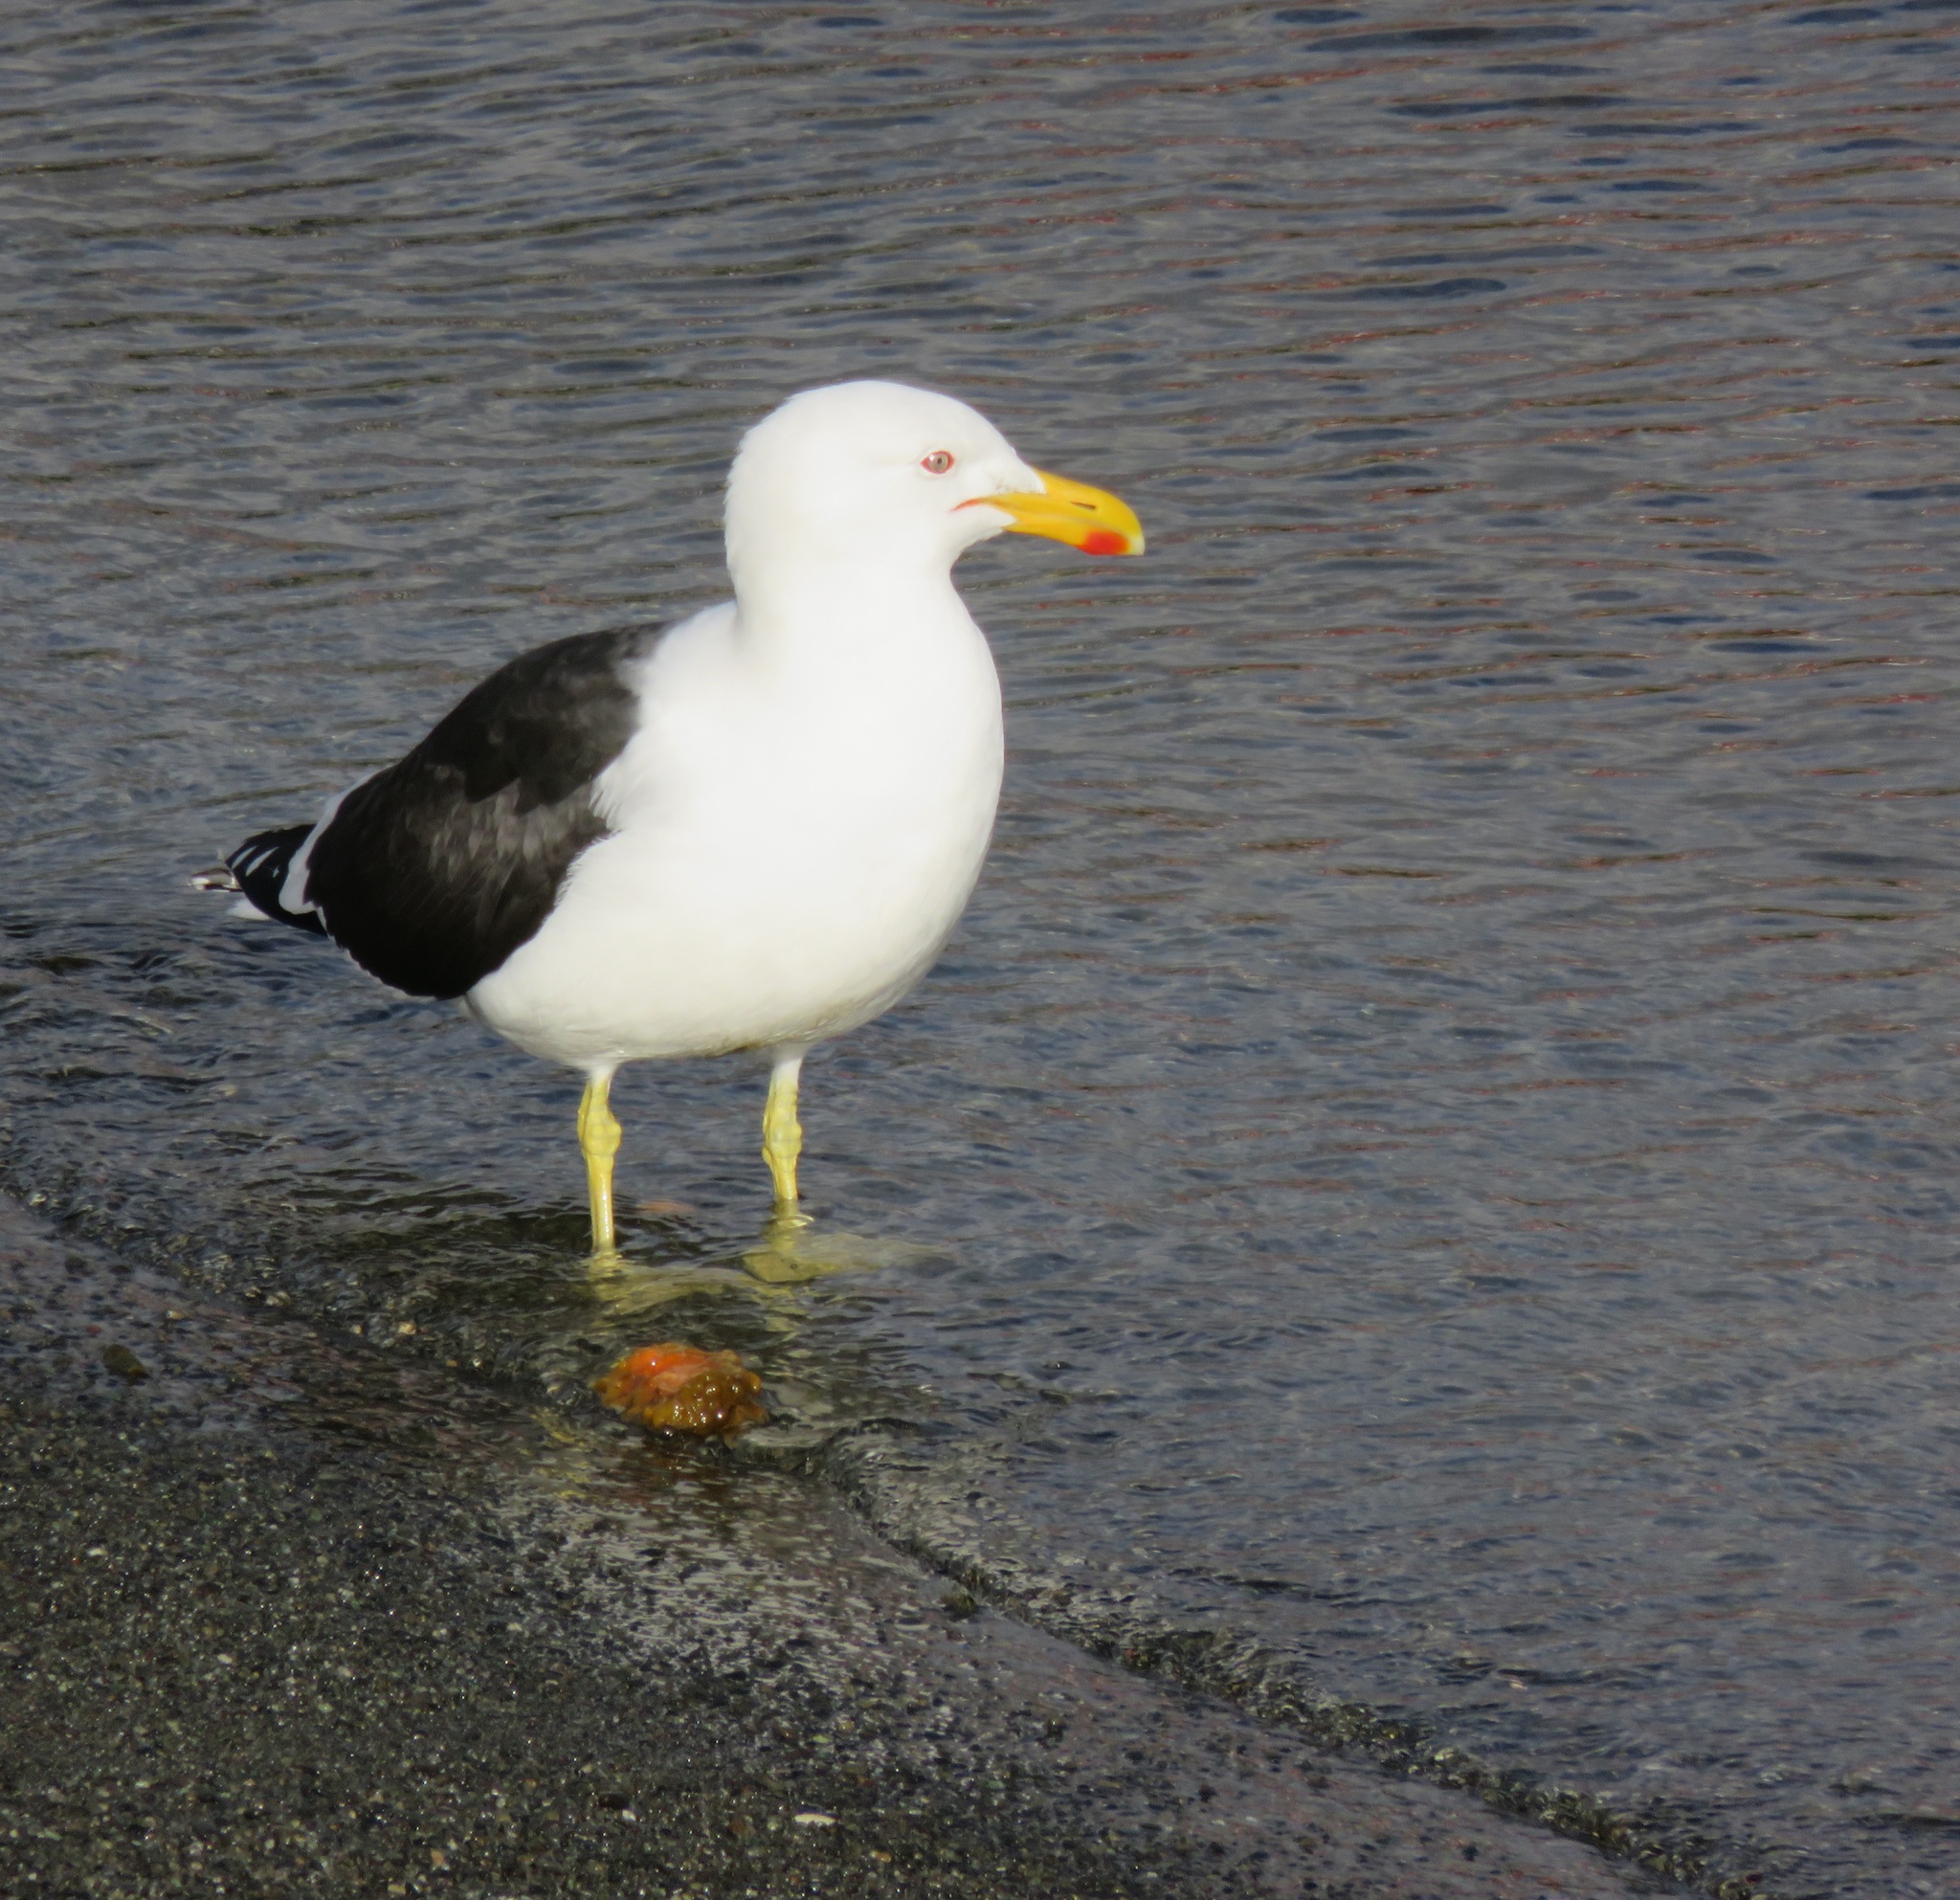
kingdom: Animalia
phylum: Chordata
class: Aves
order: Charadriiformes
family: Laridae
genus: Larus
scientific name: Larus dominicanus
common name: Kelp gull
